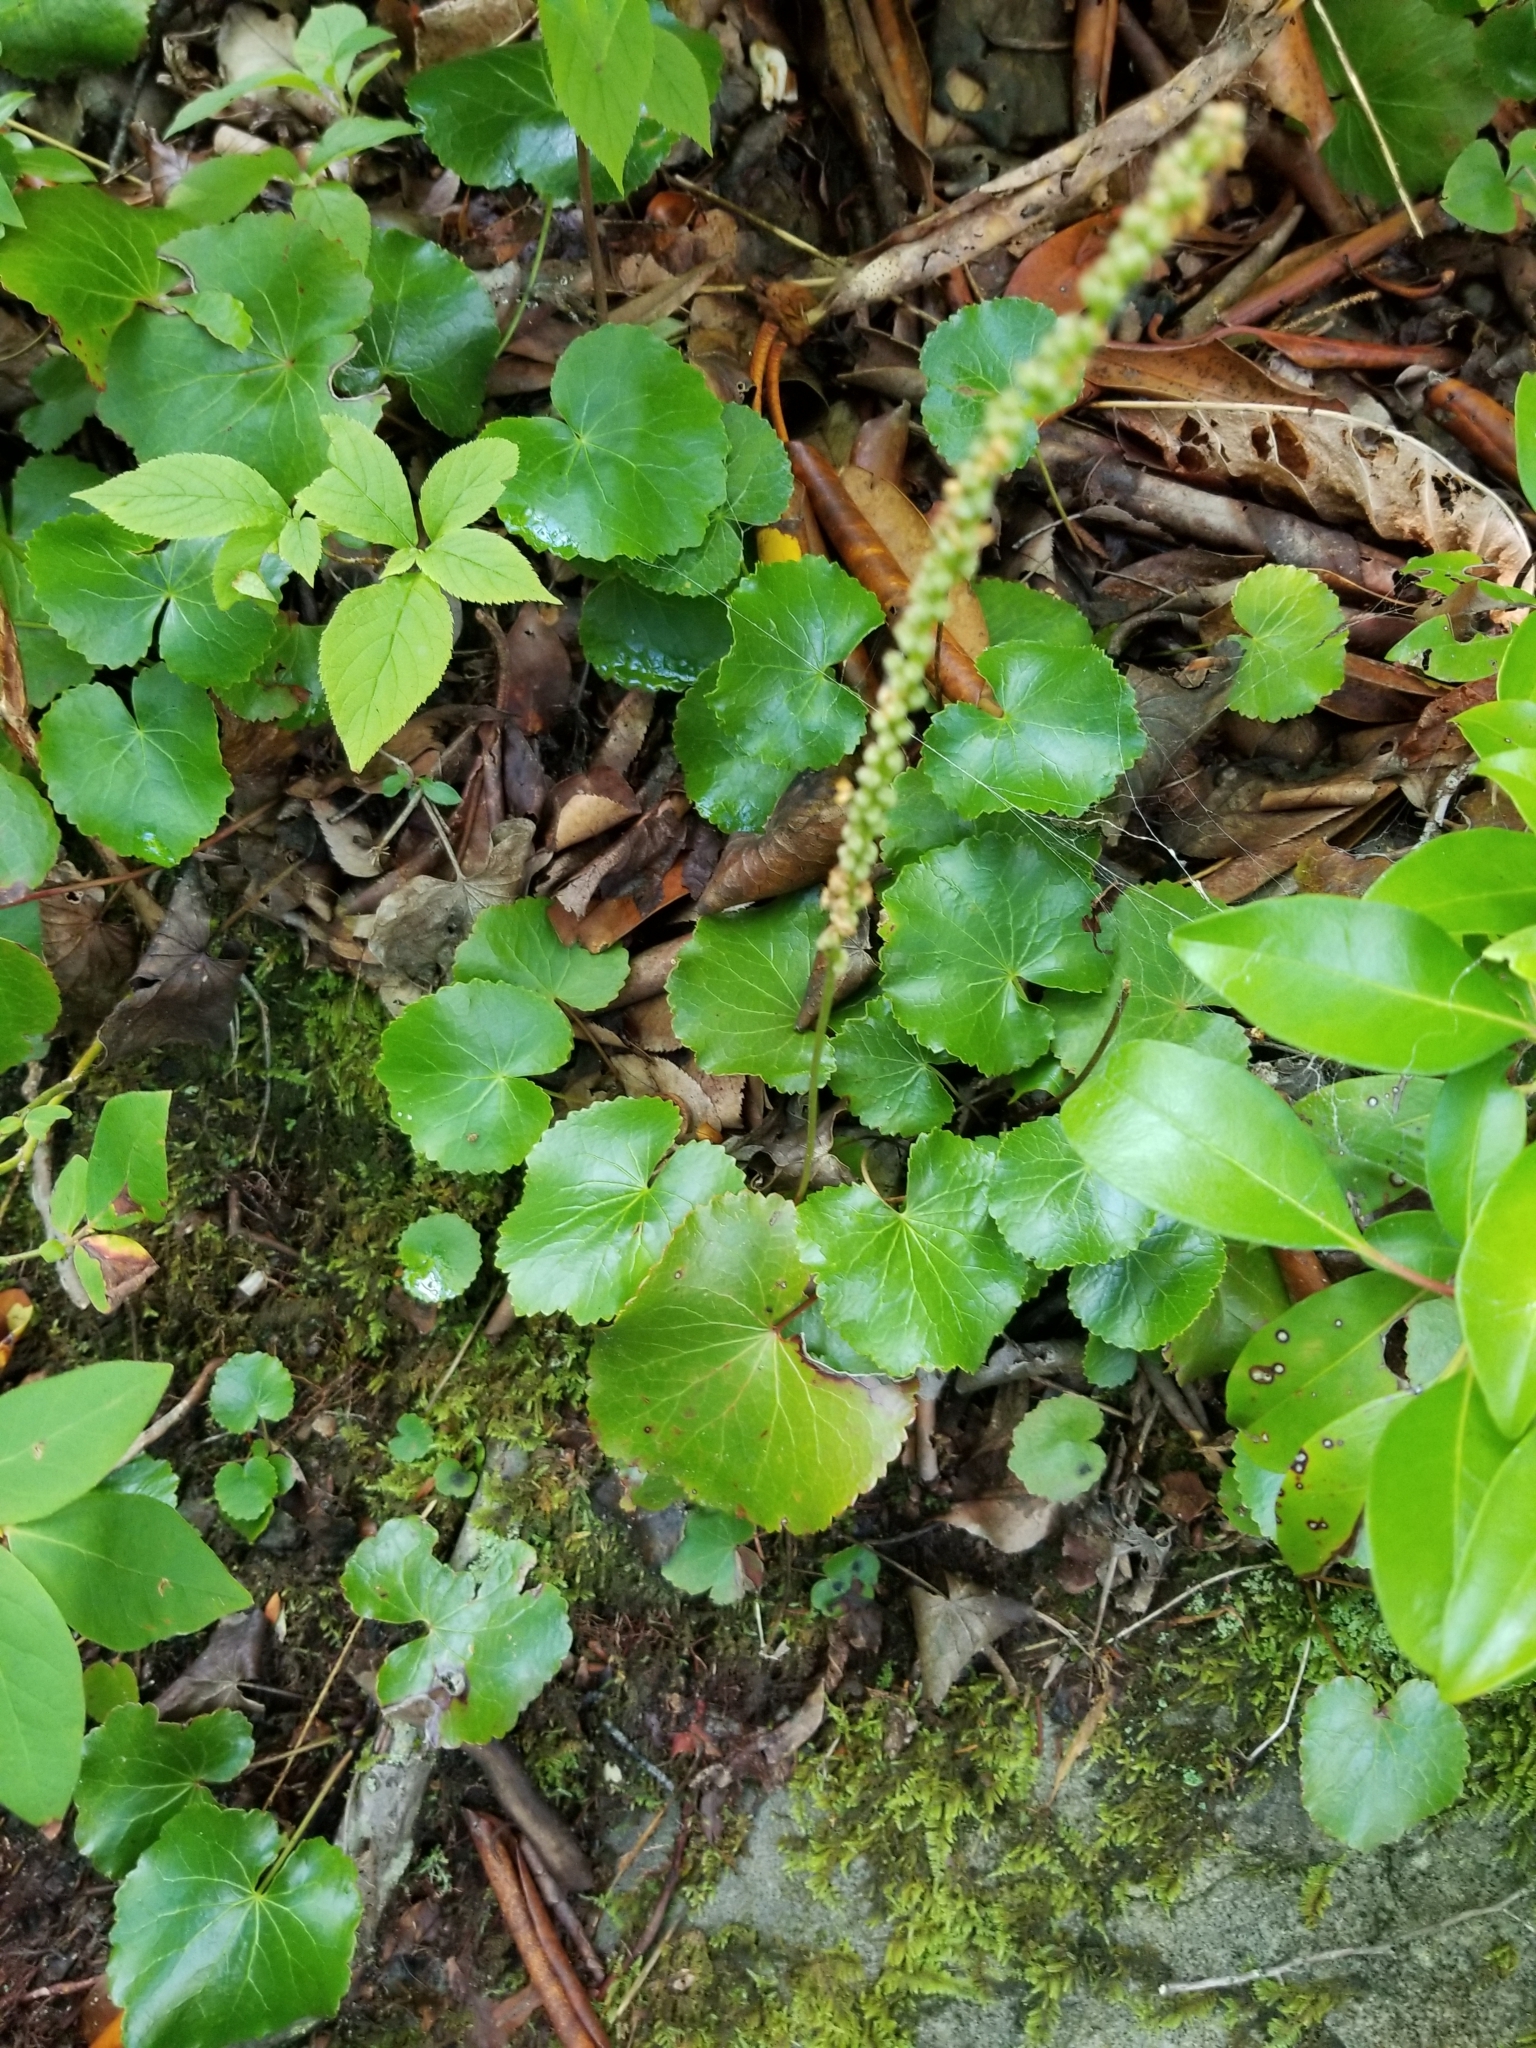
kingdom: Plantae
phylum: Tracheophyta
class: Magnoliopsida
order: Ericales
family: Diapensiaceae
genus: Galax
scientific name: Galax urceolata
